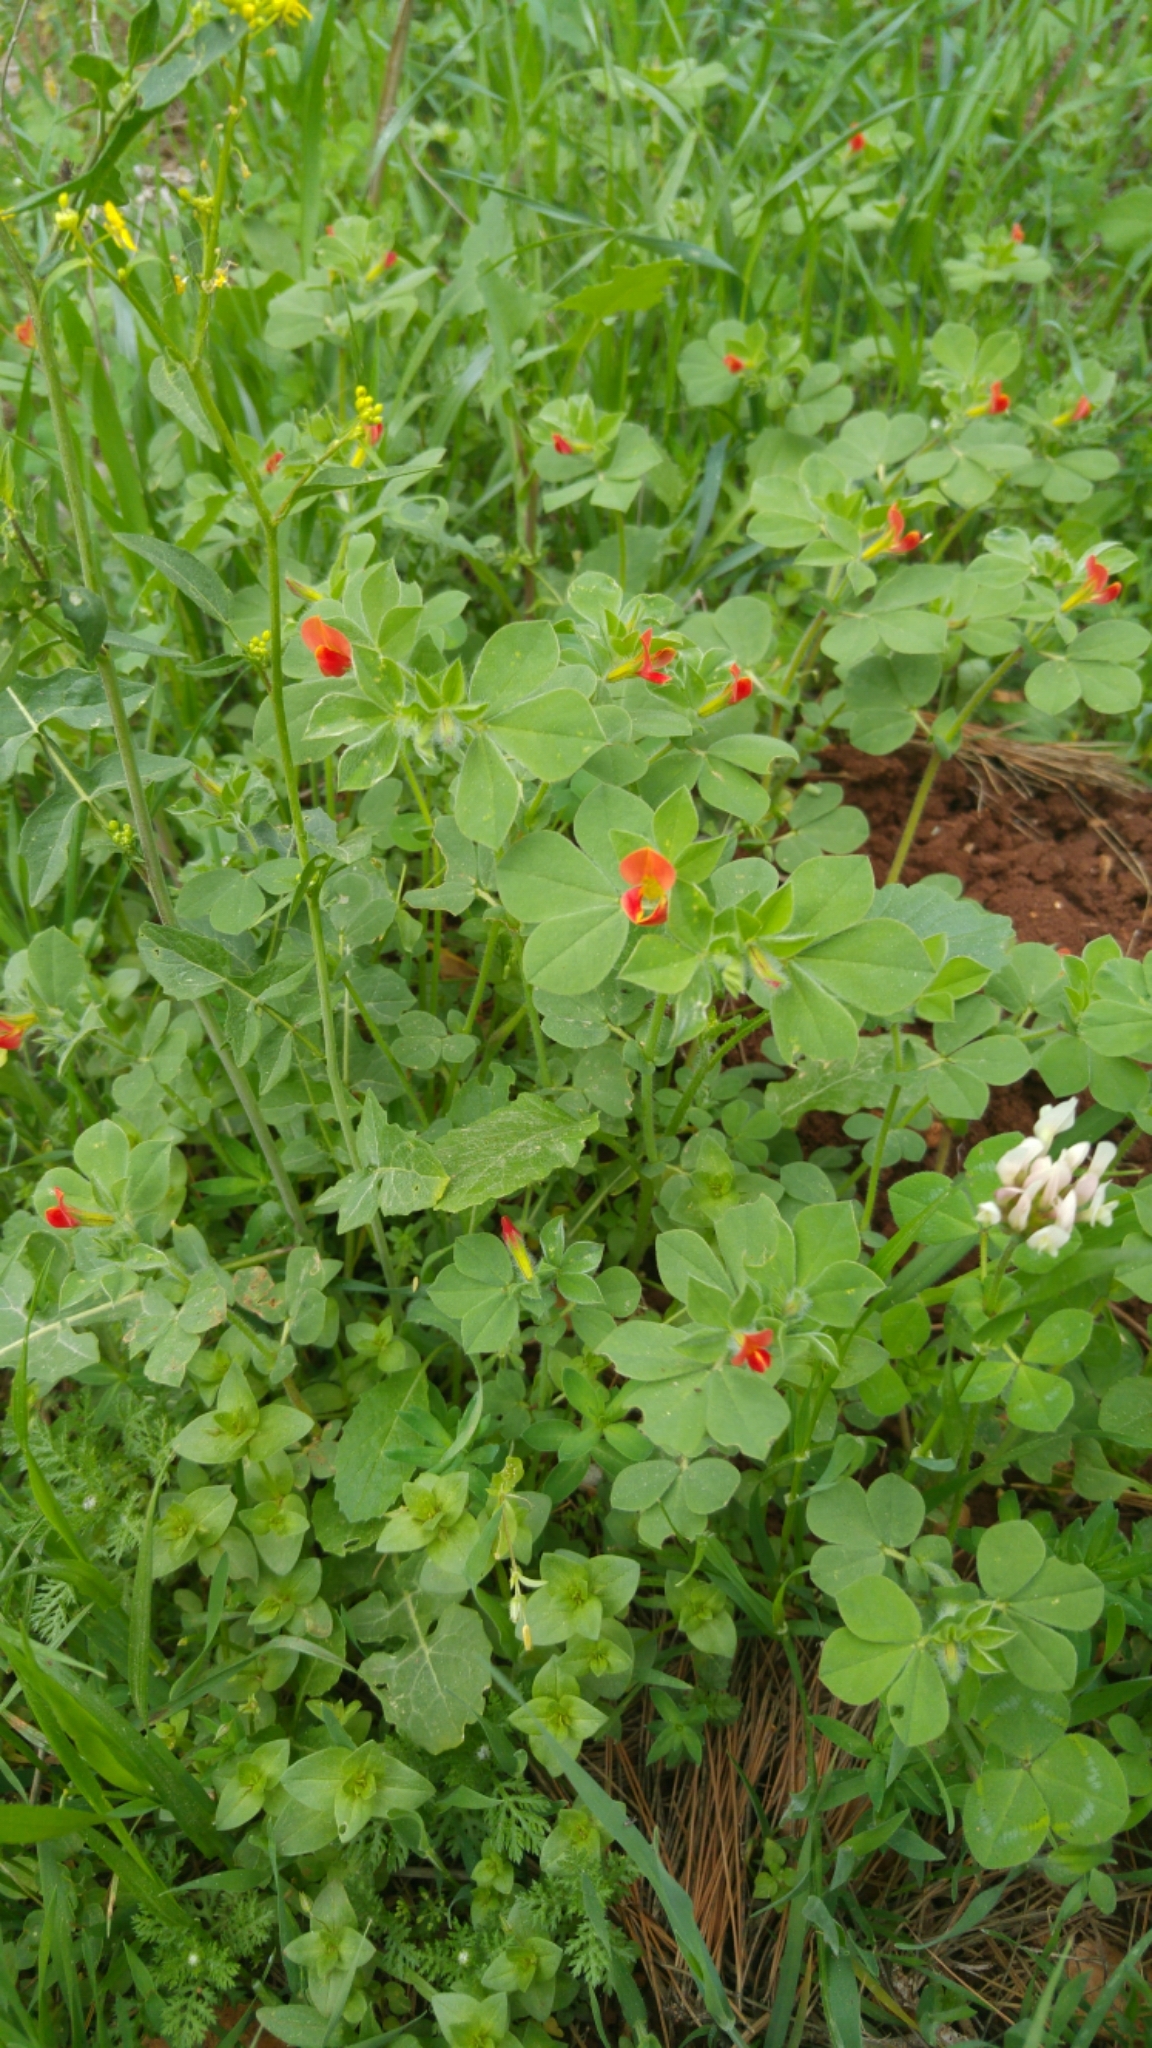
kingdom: Plantae
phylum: Tracheophyta
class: Magnoliopsida
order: Fabales
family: Fabaceae
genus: Lotus
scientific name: Lotus tetragonolobus
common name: Asparagus-pea
